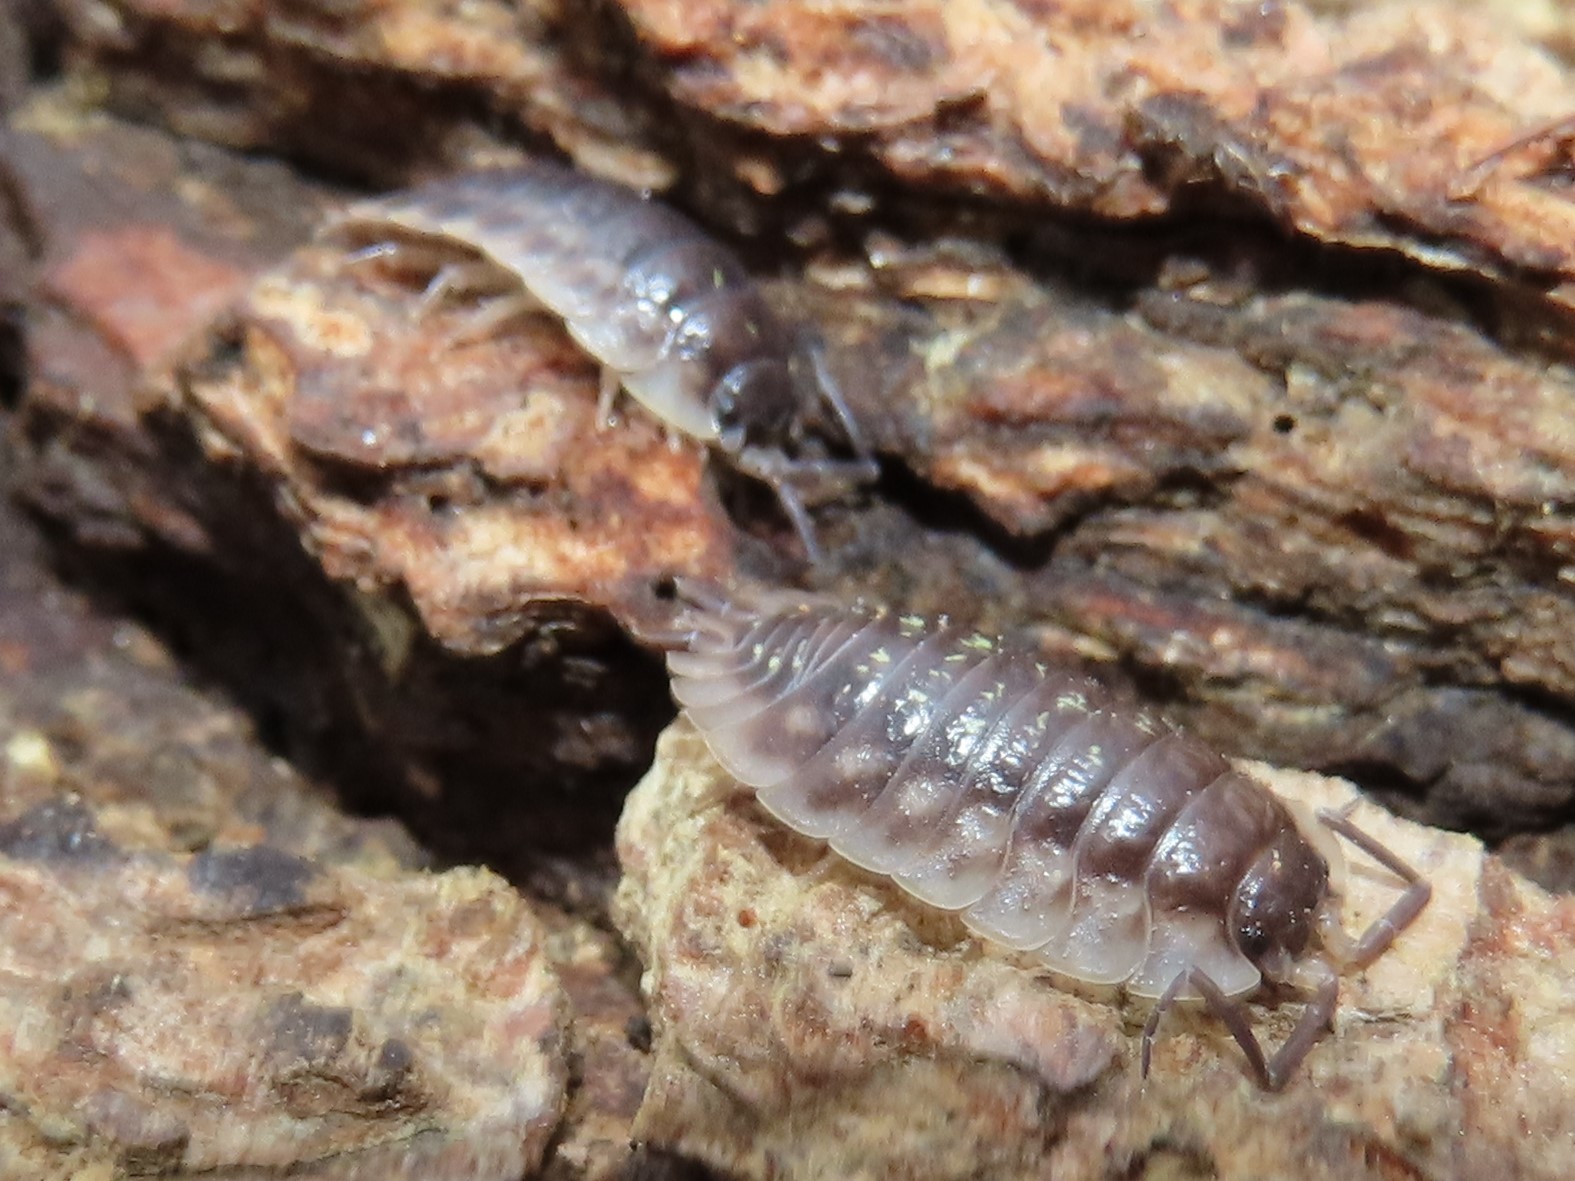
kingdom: Animalia
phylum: Arthropoda
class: Malacostraca
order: Isopoda
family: Oniscidae
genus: Oniscus
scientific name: Oniscus asellus
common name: Common shiny woodlouse
